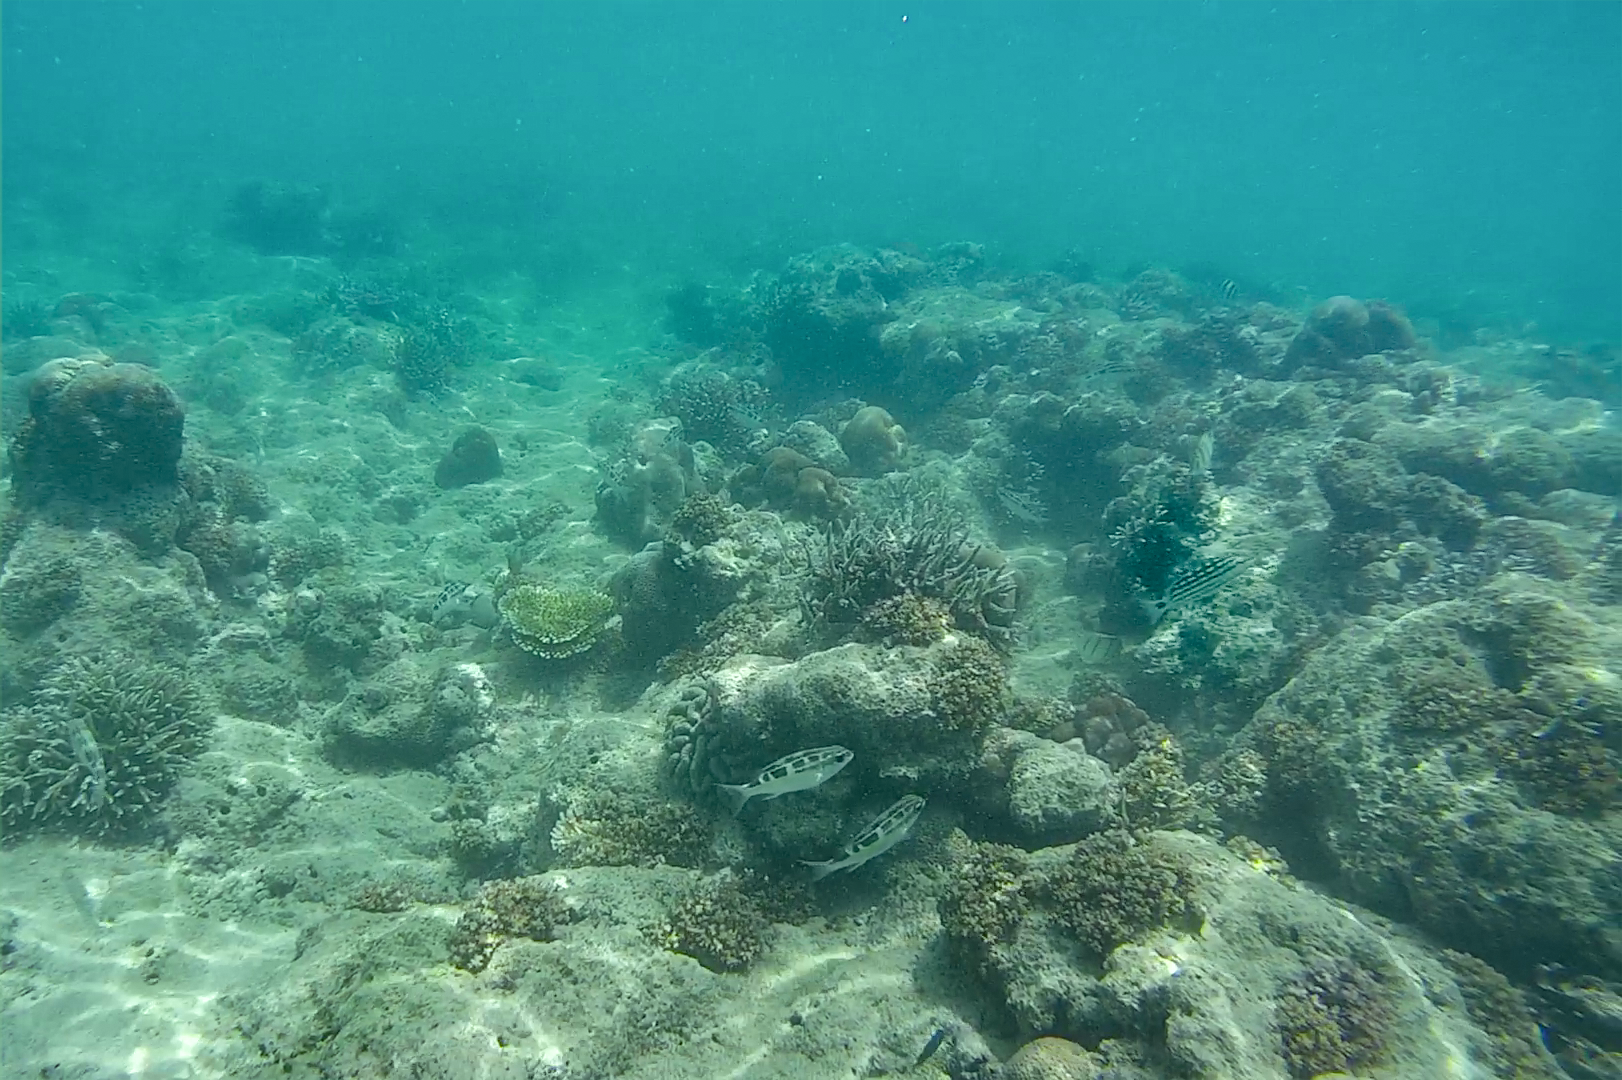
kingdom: Animalia
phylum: Chordata
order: Perciformes
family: Lutjanidae
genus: Lutjanus
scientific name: Lutjanus decussatus
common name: Checkered snapper
